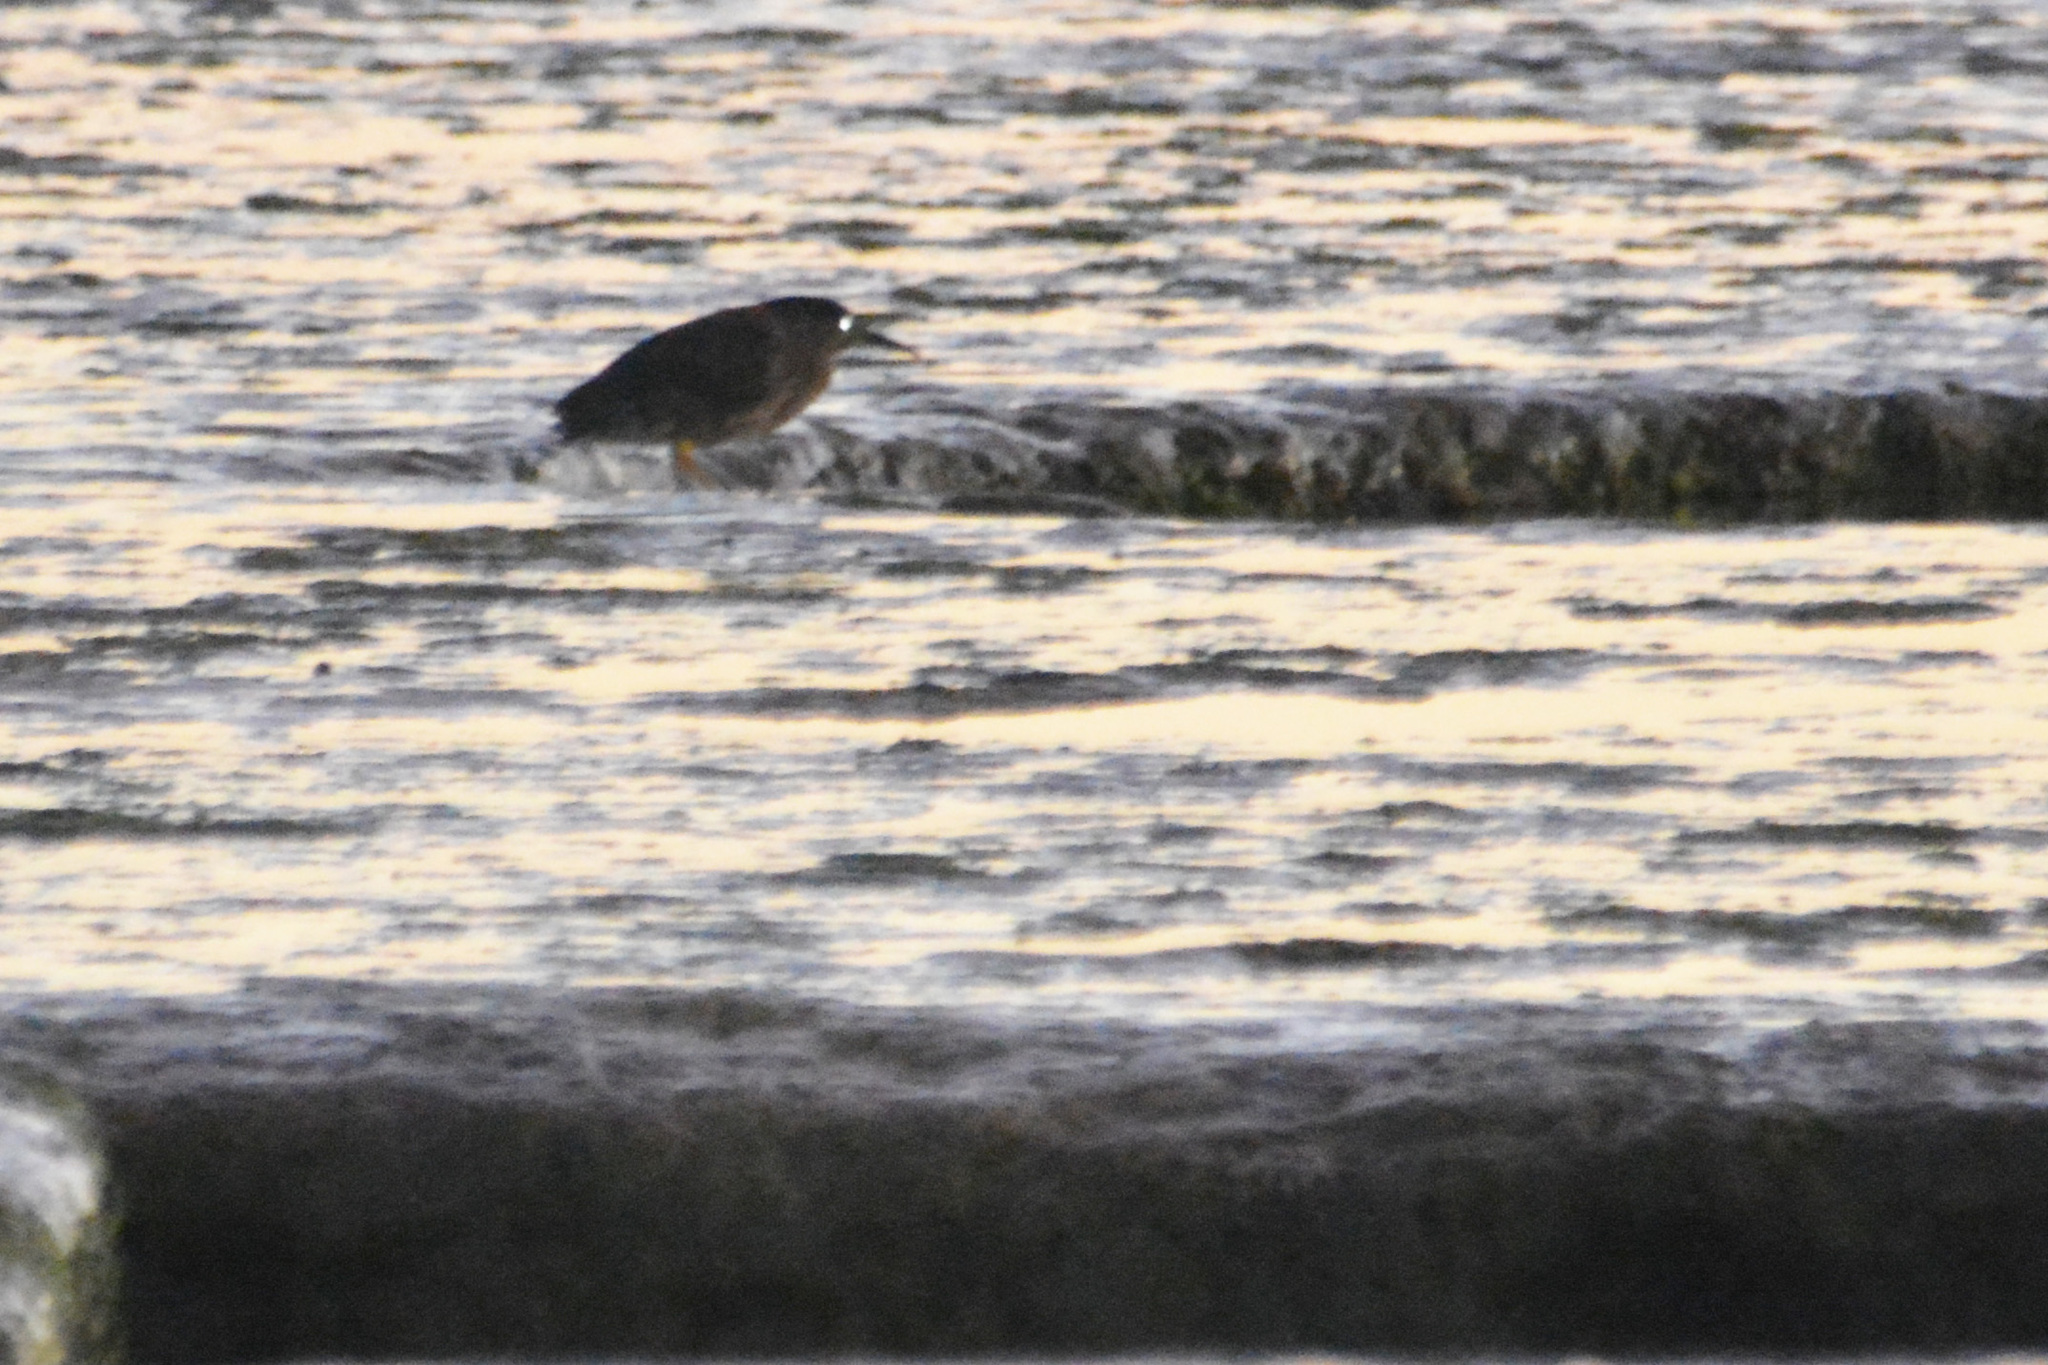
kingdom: Animalia
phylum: Chordata
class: Aves
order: Pelecaniformes
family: Ardeidae
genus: Nycticorax
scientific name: Nycticorax nycticorax
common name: Black-crowned night heron
